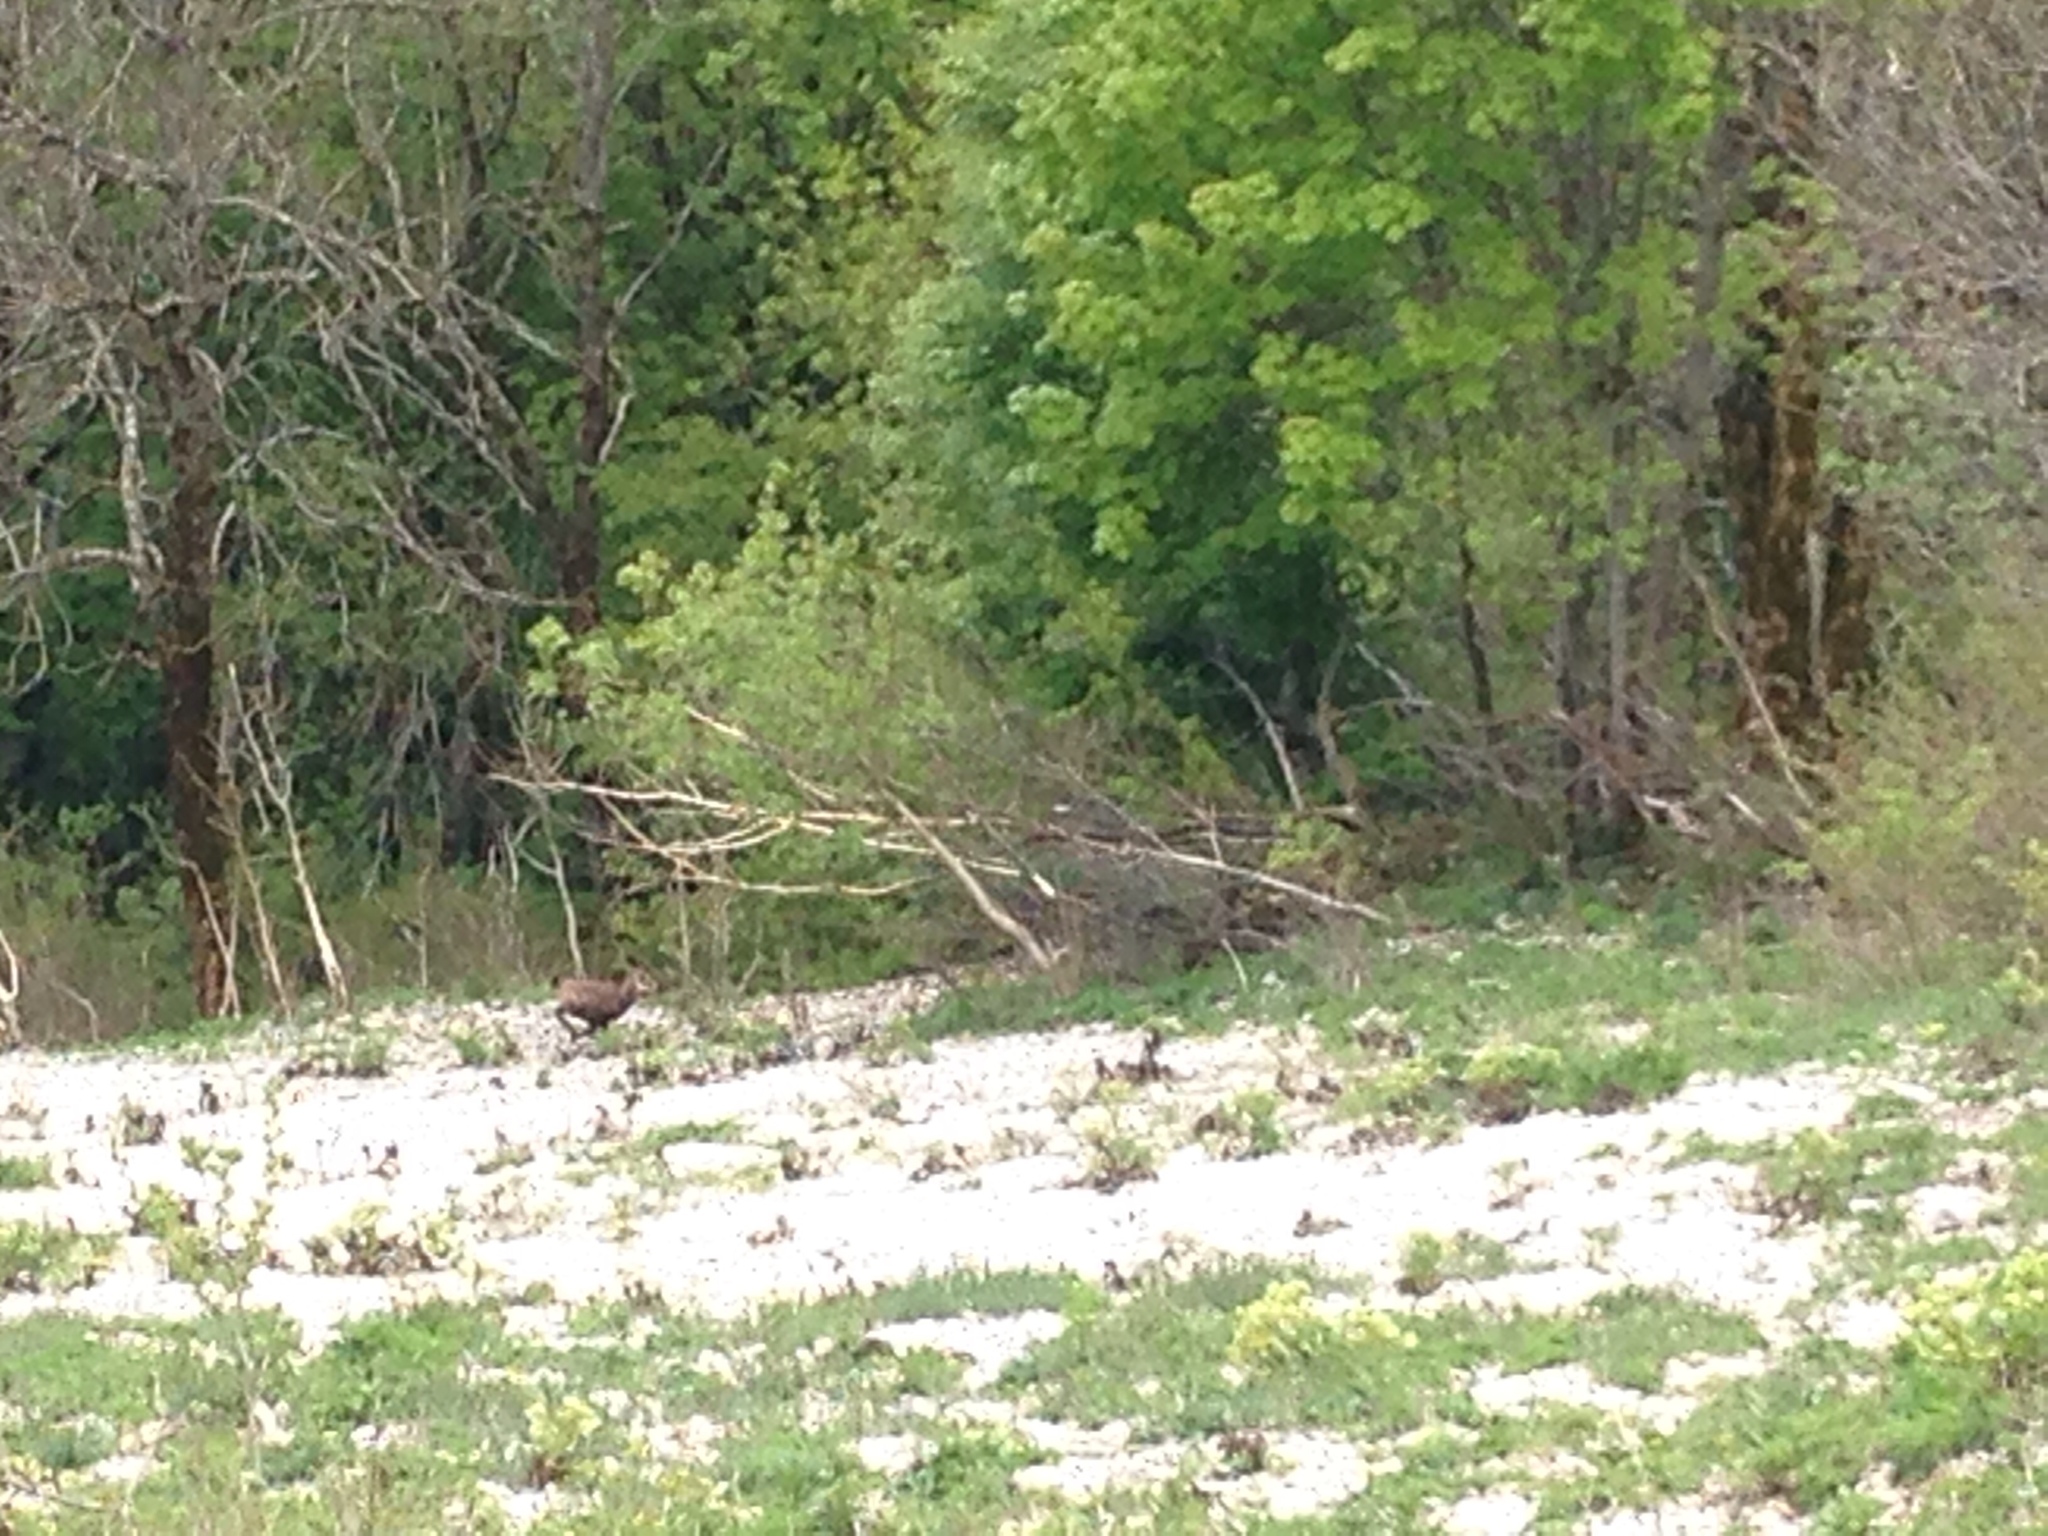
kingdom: Animalia
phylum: Chordata
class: Mammalia
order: Artiodactyla
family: Bovidae
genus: Rupicapra
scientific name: Rupicapra rupicapra
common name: Chamois
